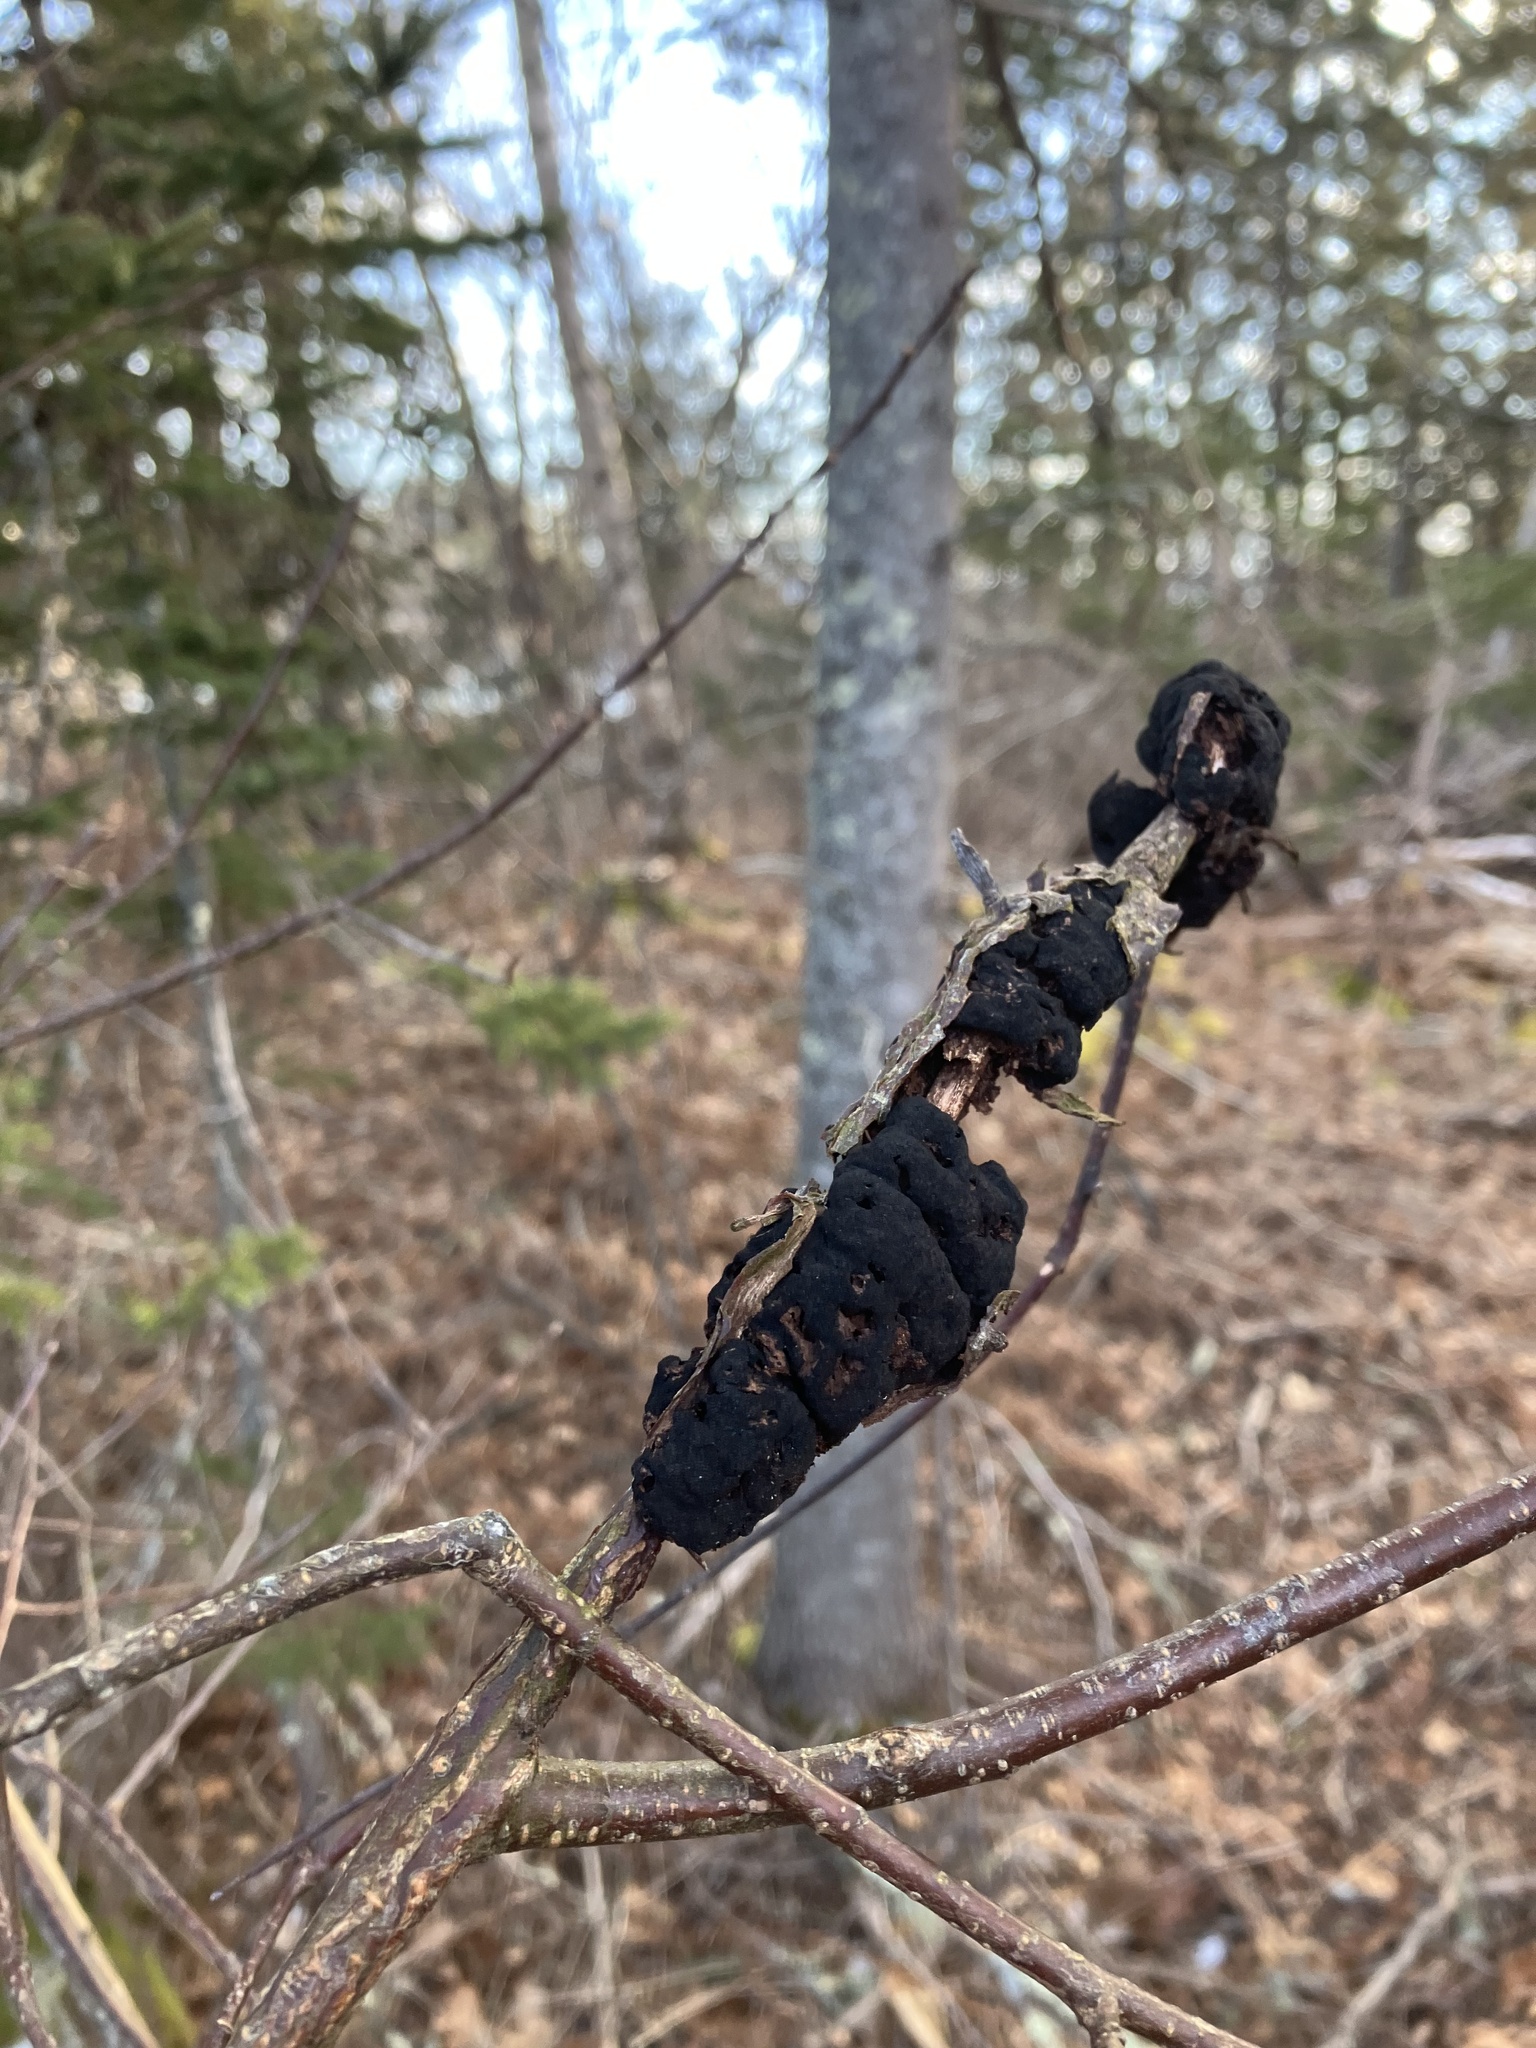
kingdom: Fungi
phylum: Ascomycota
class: Dothideomycetes
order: Venturiales
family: Venturiaceae
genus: Apiosporina
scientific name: Apiosporina morbosa
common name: Black knot
